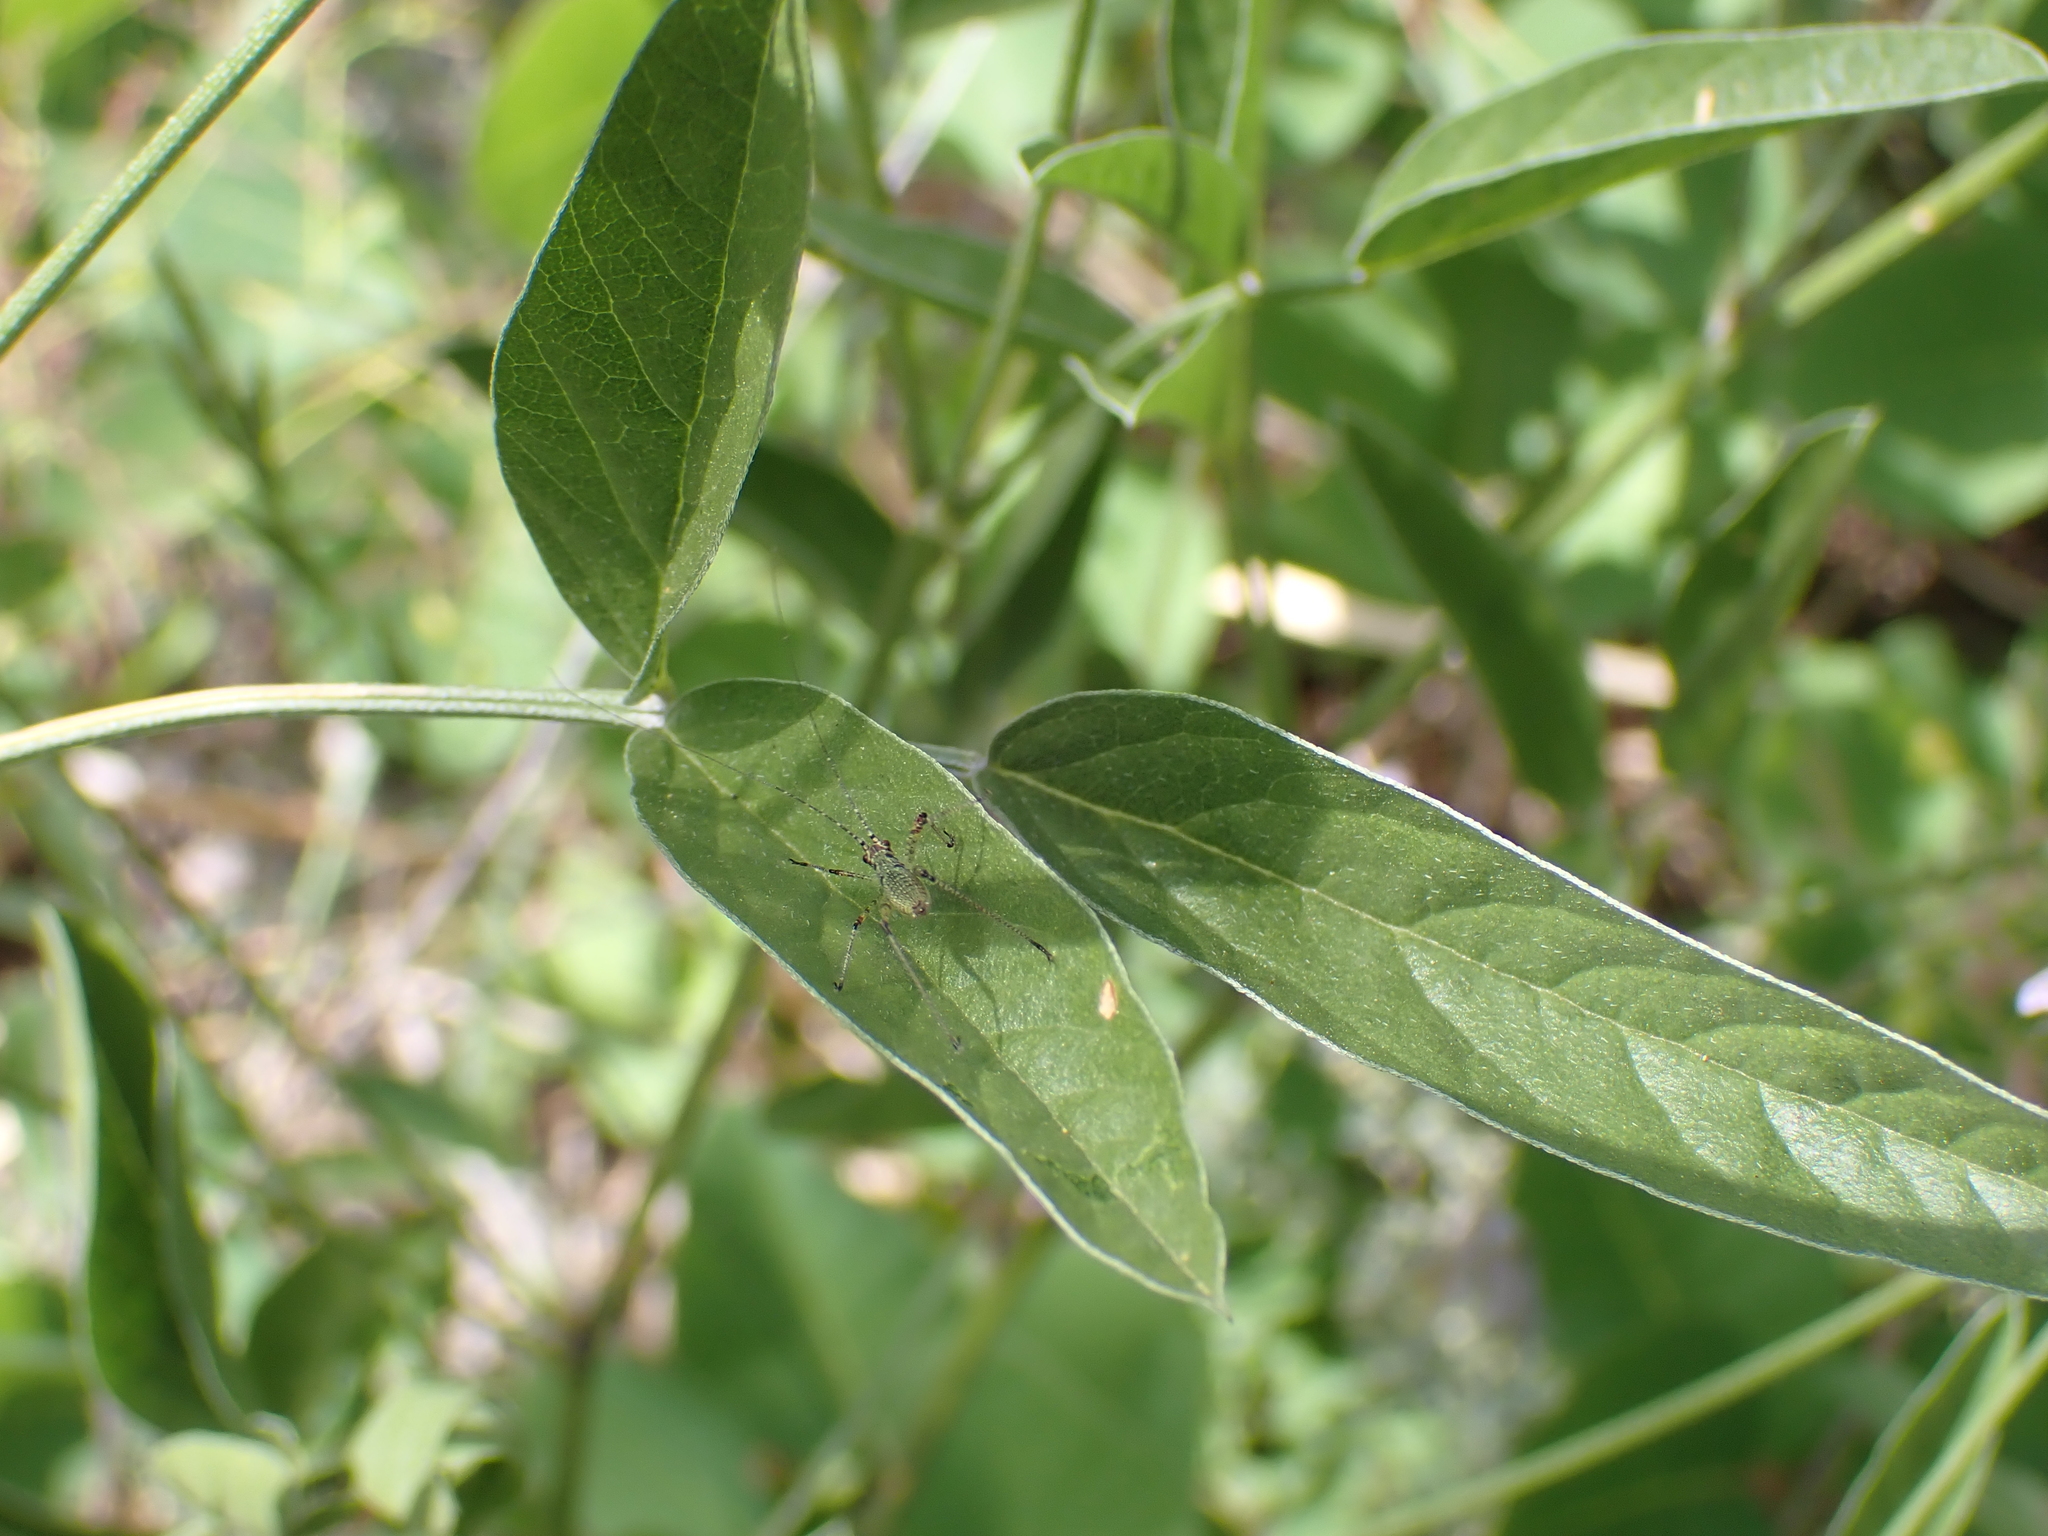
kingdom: Plantae
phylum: Tracheophyta
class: Magnoliopsida
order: Fabales
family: Fabaceae
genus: Bituminaria
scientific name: Bituminaria bituminosa
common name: Arabian pea
